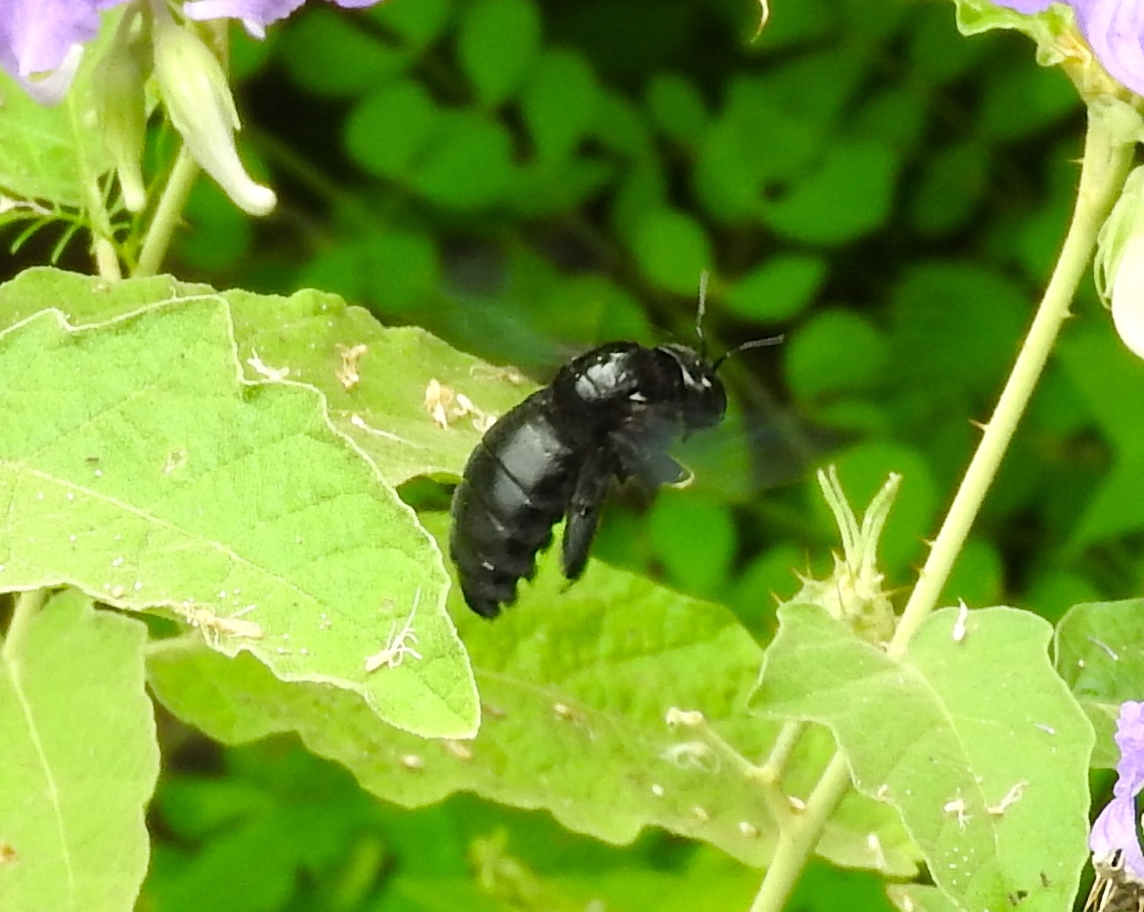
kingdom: Animalia
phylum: Arthropoda
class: Insecta
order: Hymenoptera
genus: Neoxylocopa
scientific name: Neoxylocopa
